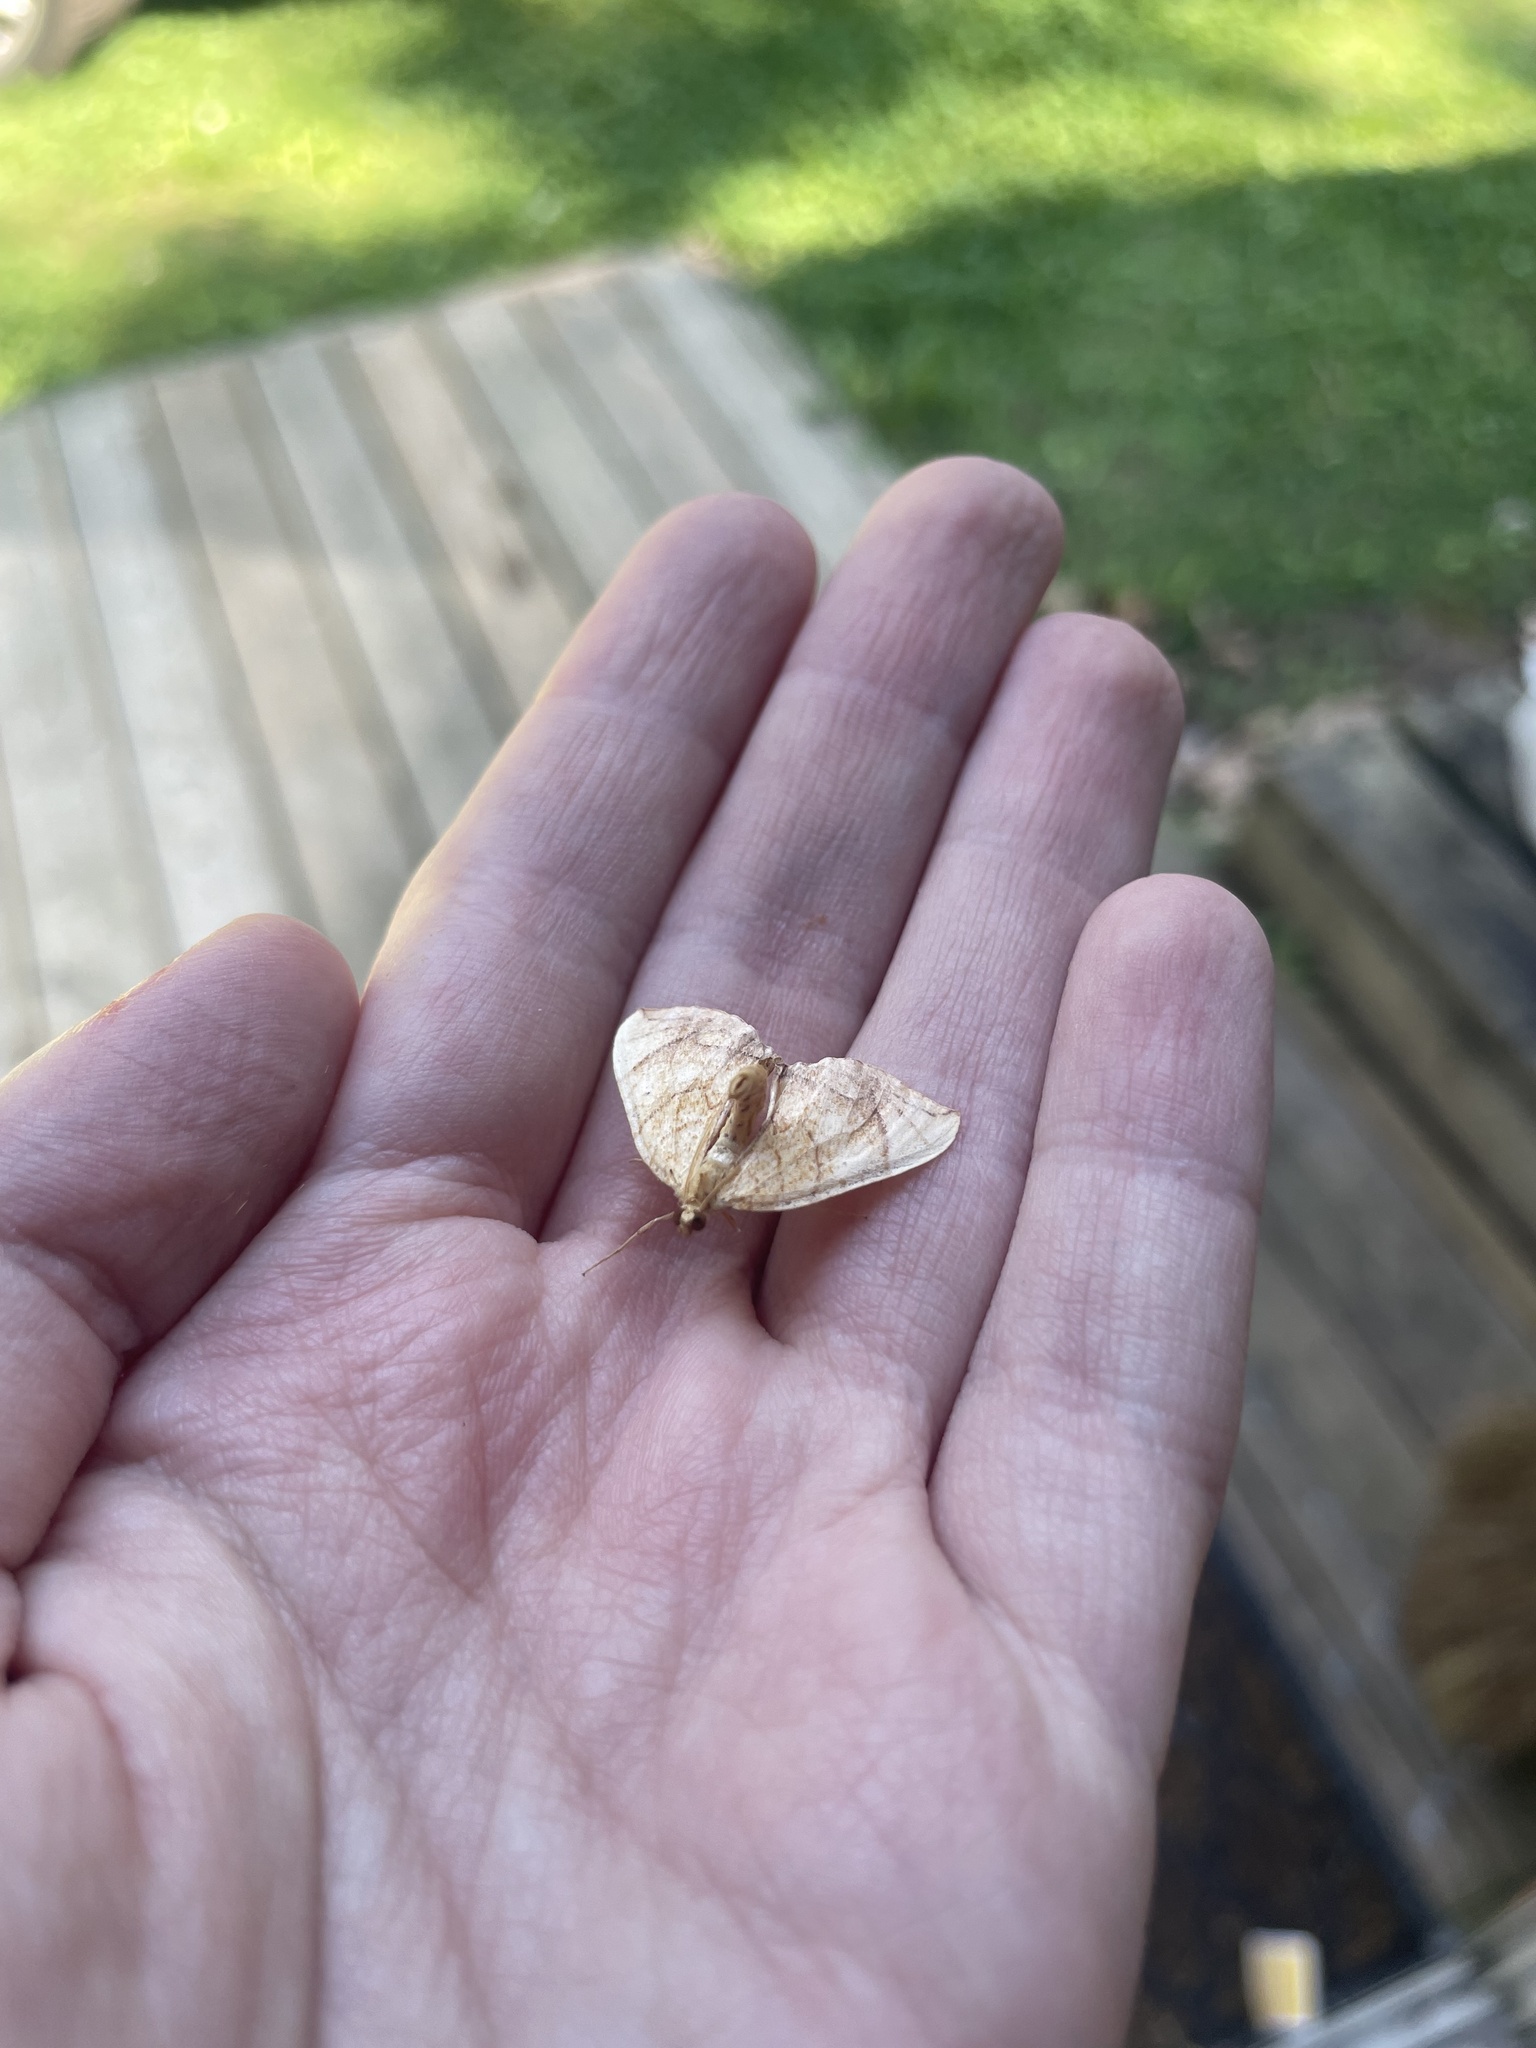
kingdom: Animalia
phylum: Arthropoda
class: Insecta
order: Lepidoptera
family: Geometridae
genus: Eulithis
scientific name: Eulithis
